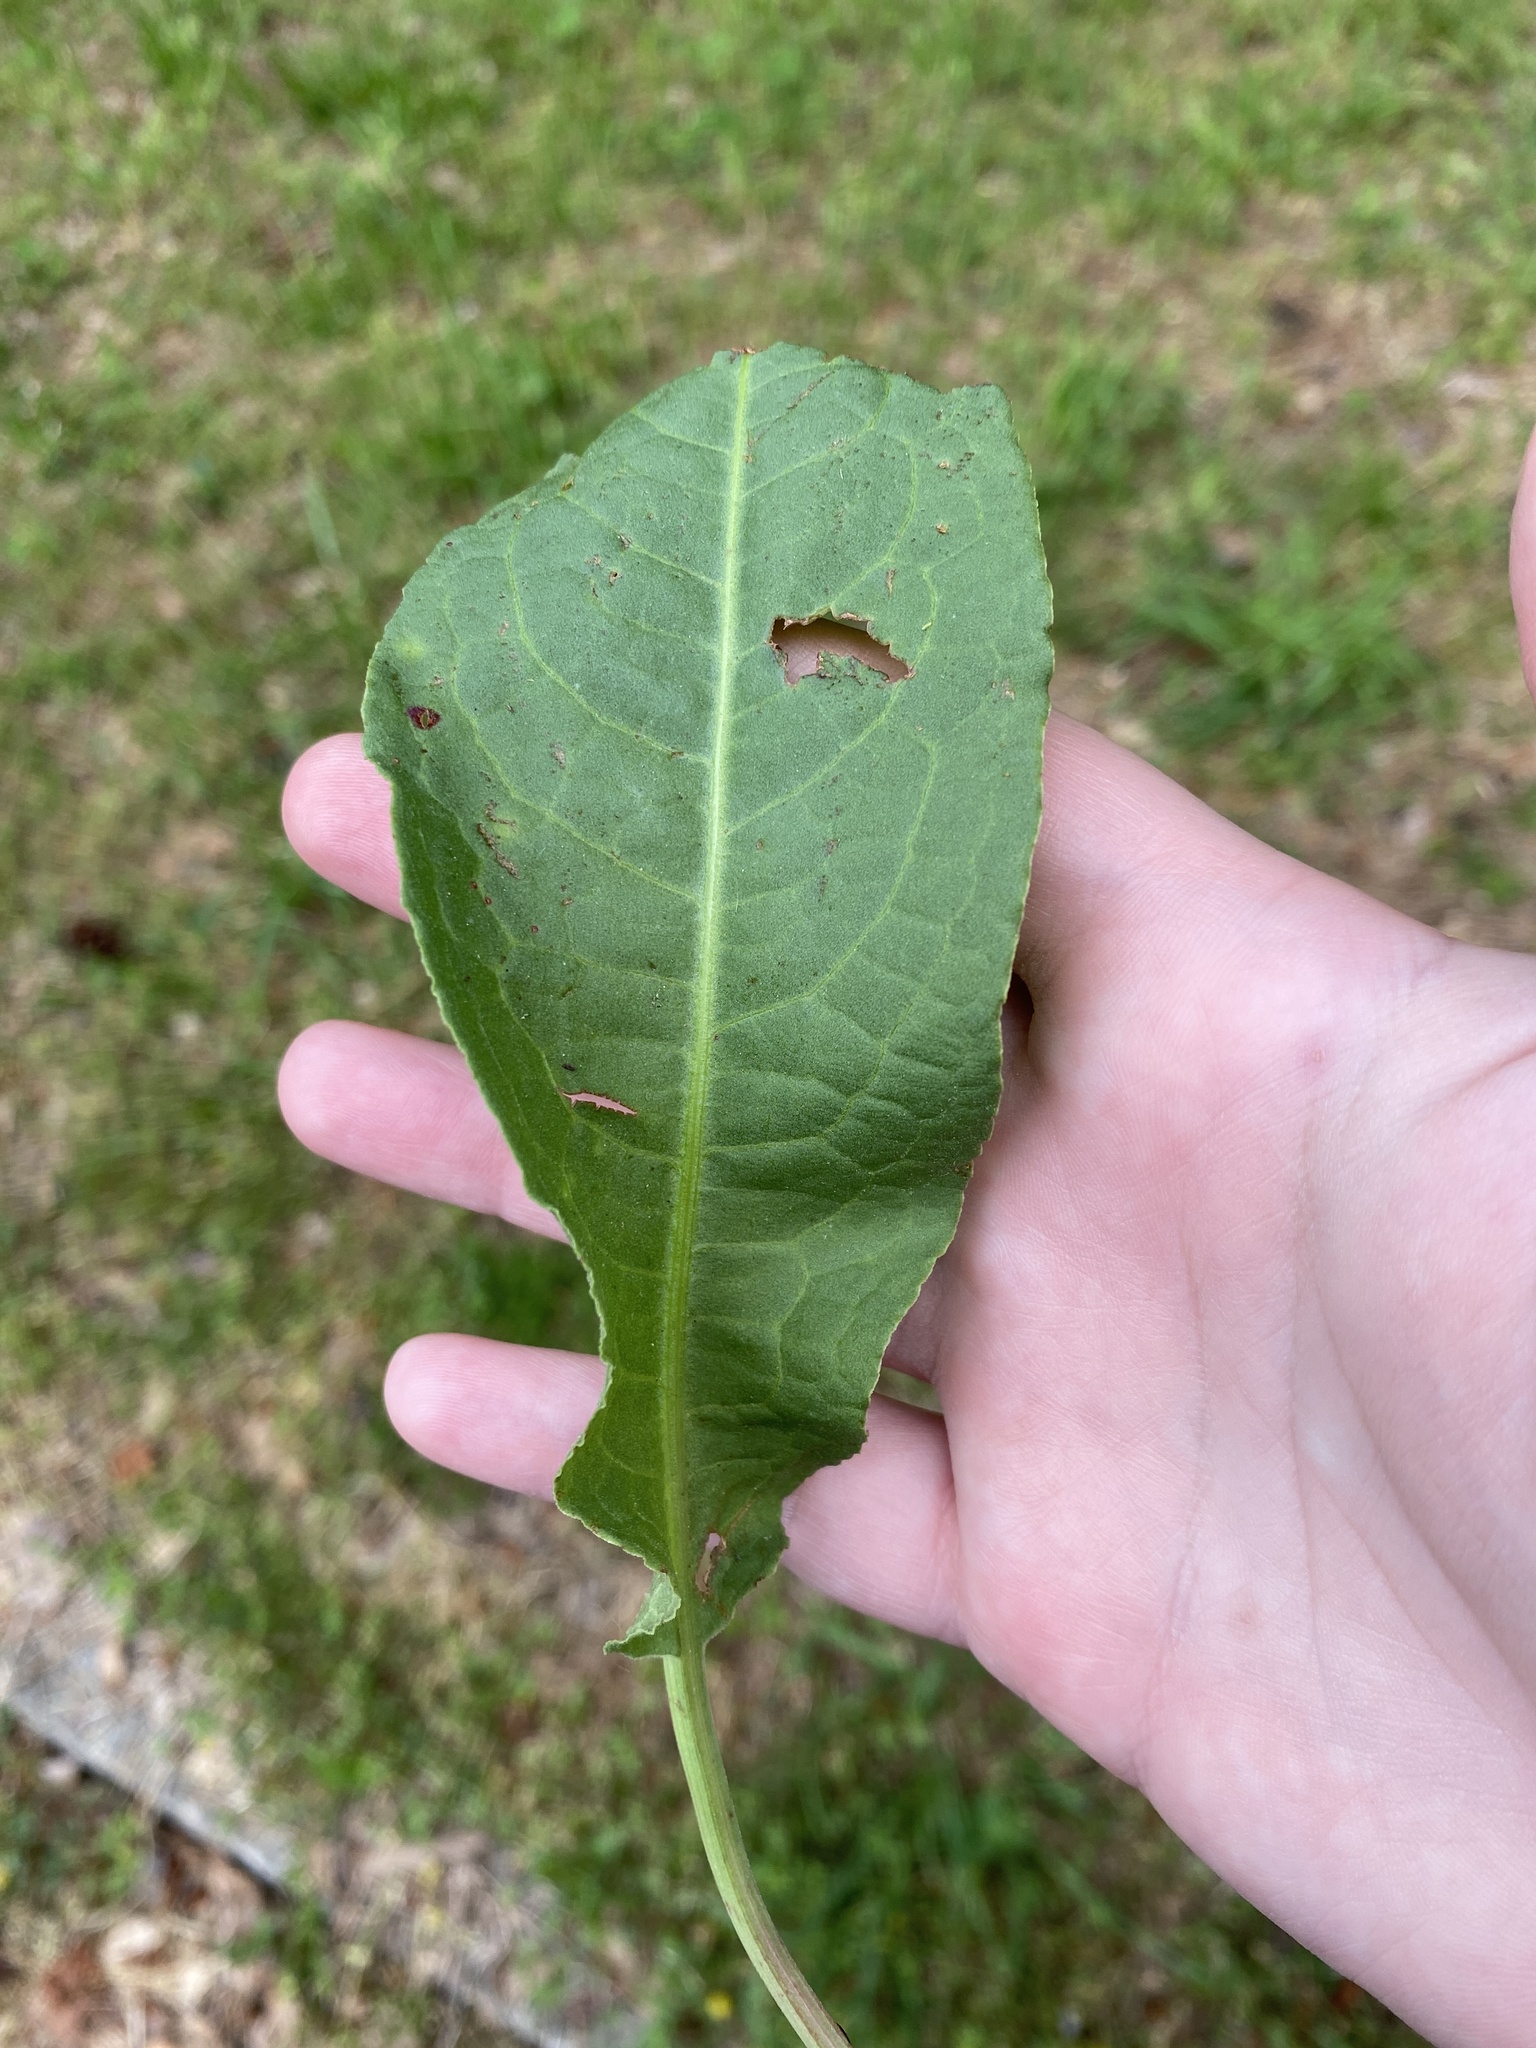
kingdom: Plantae
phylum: Tracheophyta
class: Magnoliopsida
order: Caryophyllales
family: Polygonaceae
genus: Rumex
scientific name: Rumex crispus
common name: Curled dock
